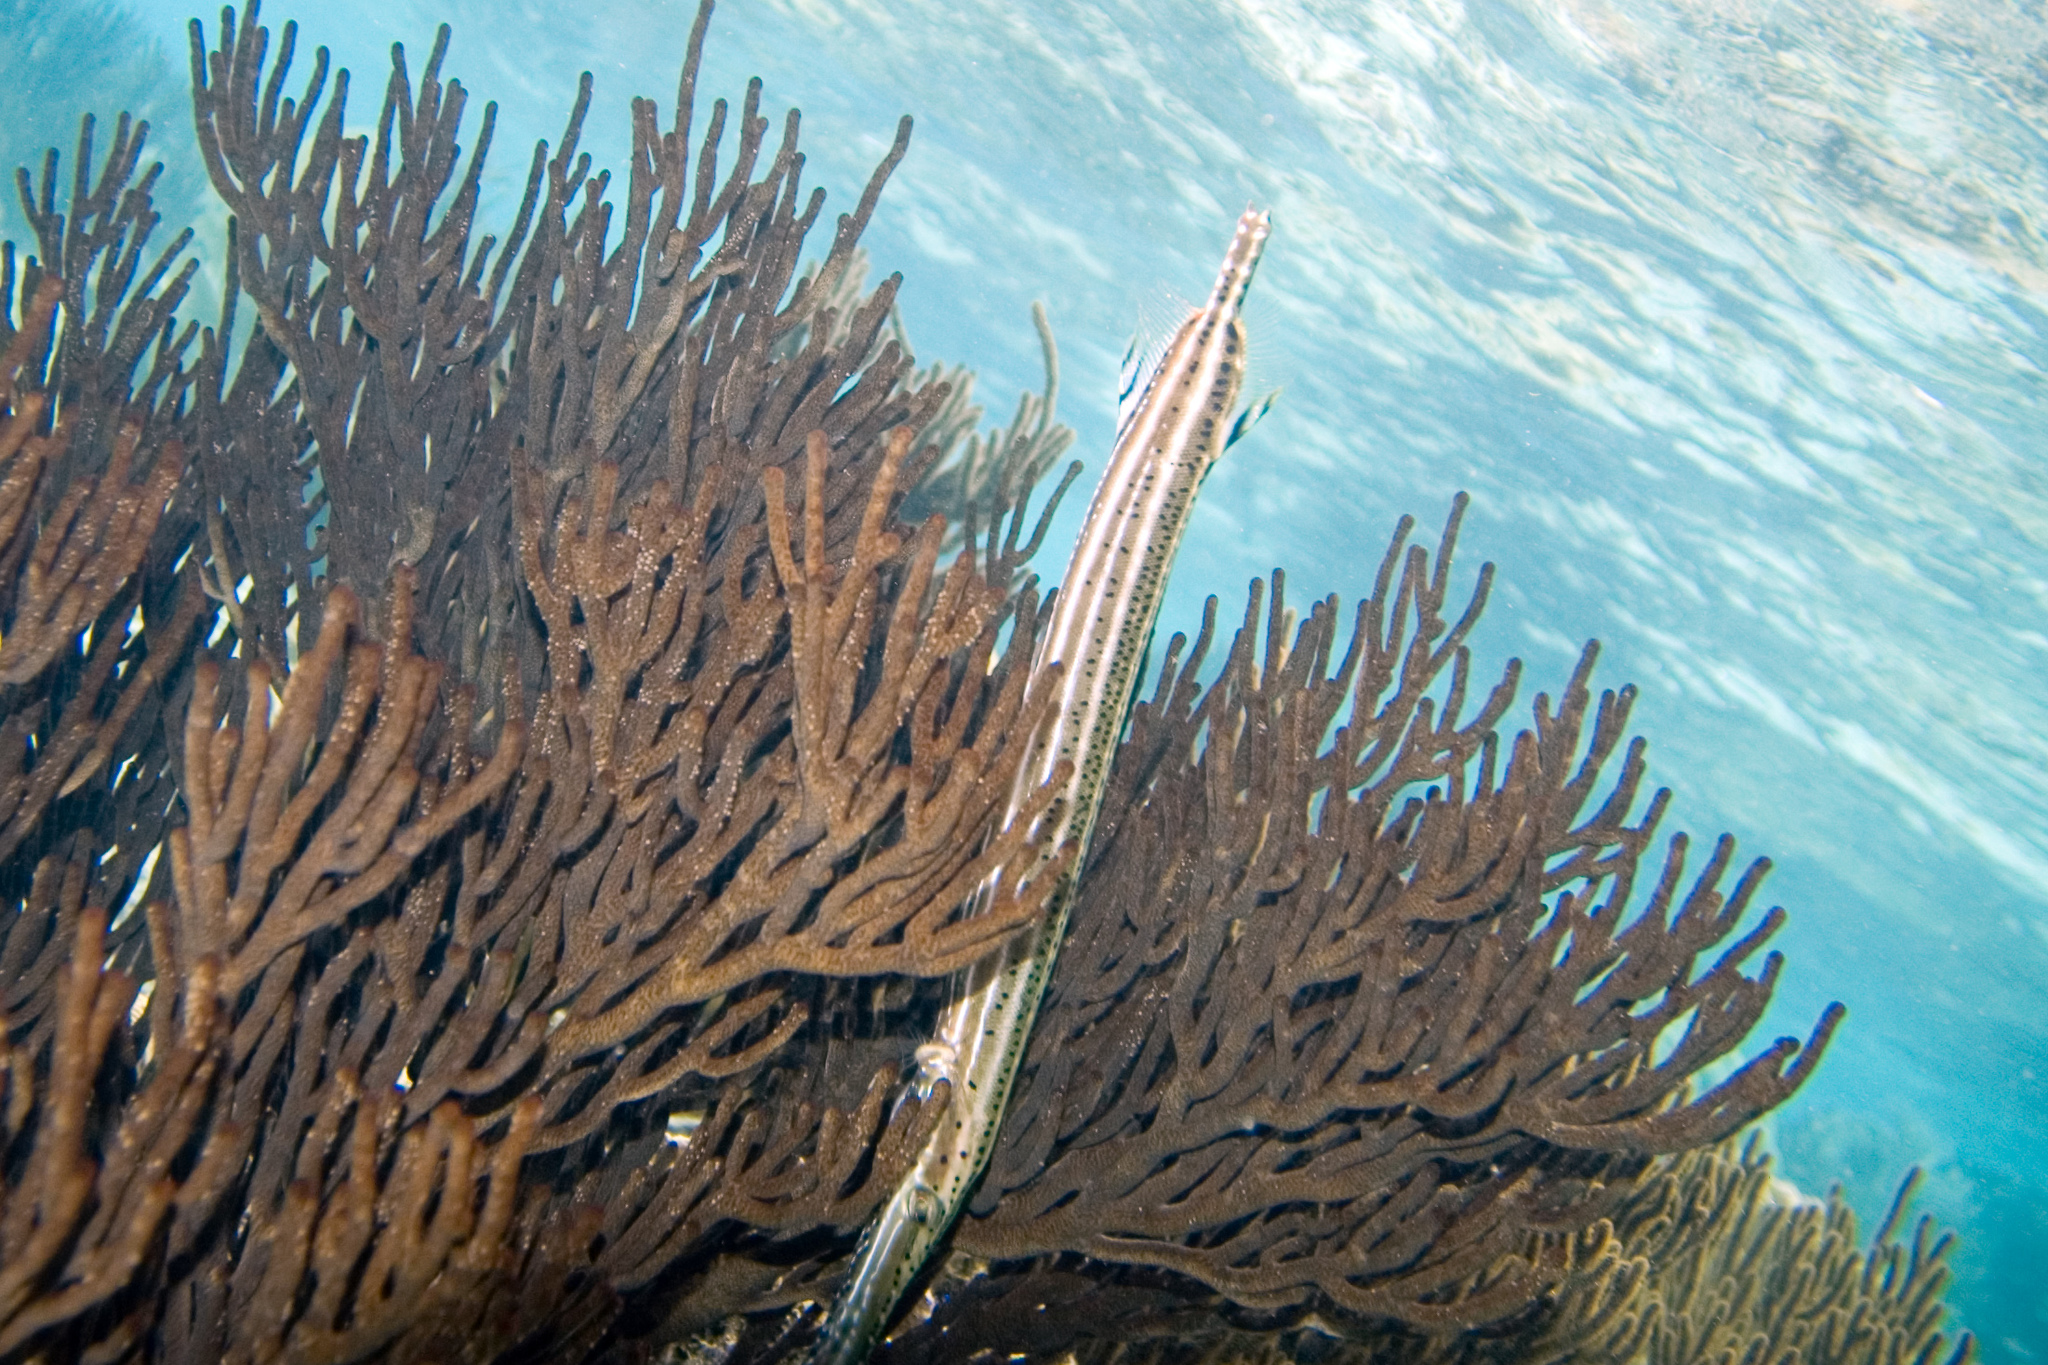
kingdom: Animalia
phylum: Cnidaria
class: Anthozoa
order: Malacalcyonacea
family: Plexauridae
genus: Plexaura
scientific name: Plexaura homomalla
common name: Black sea rod
